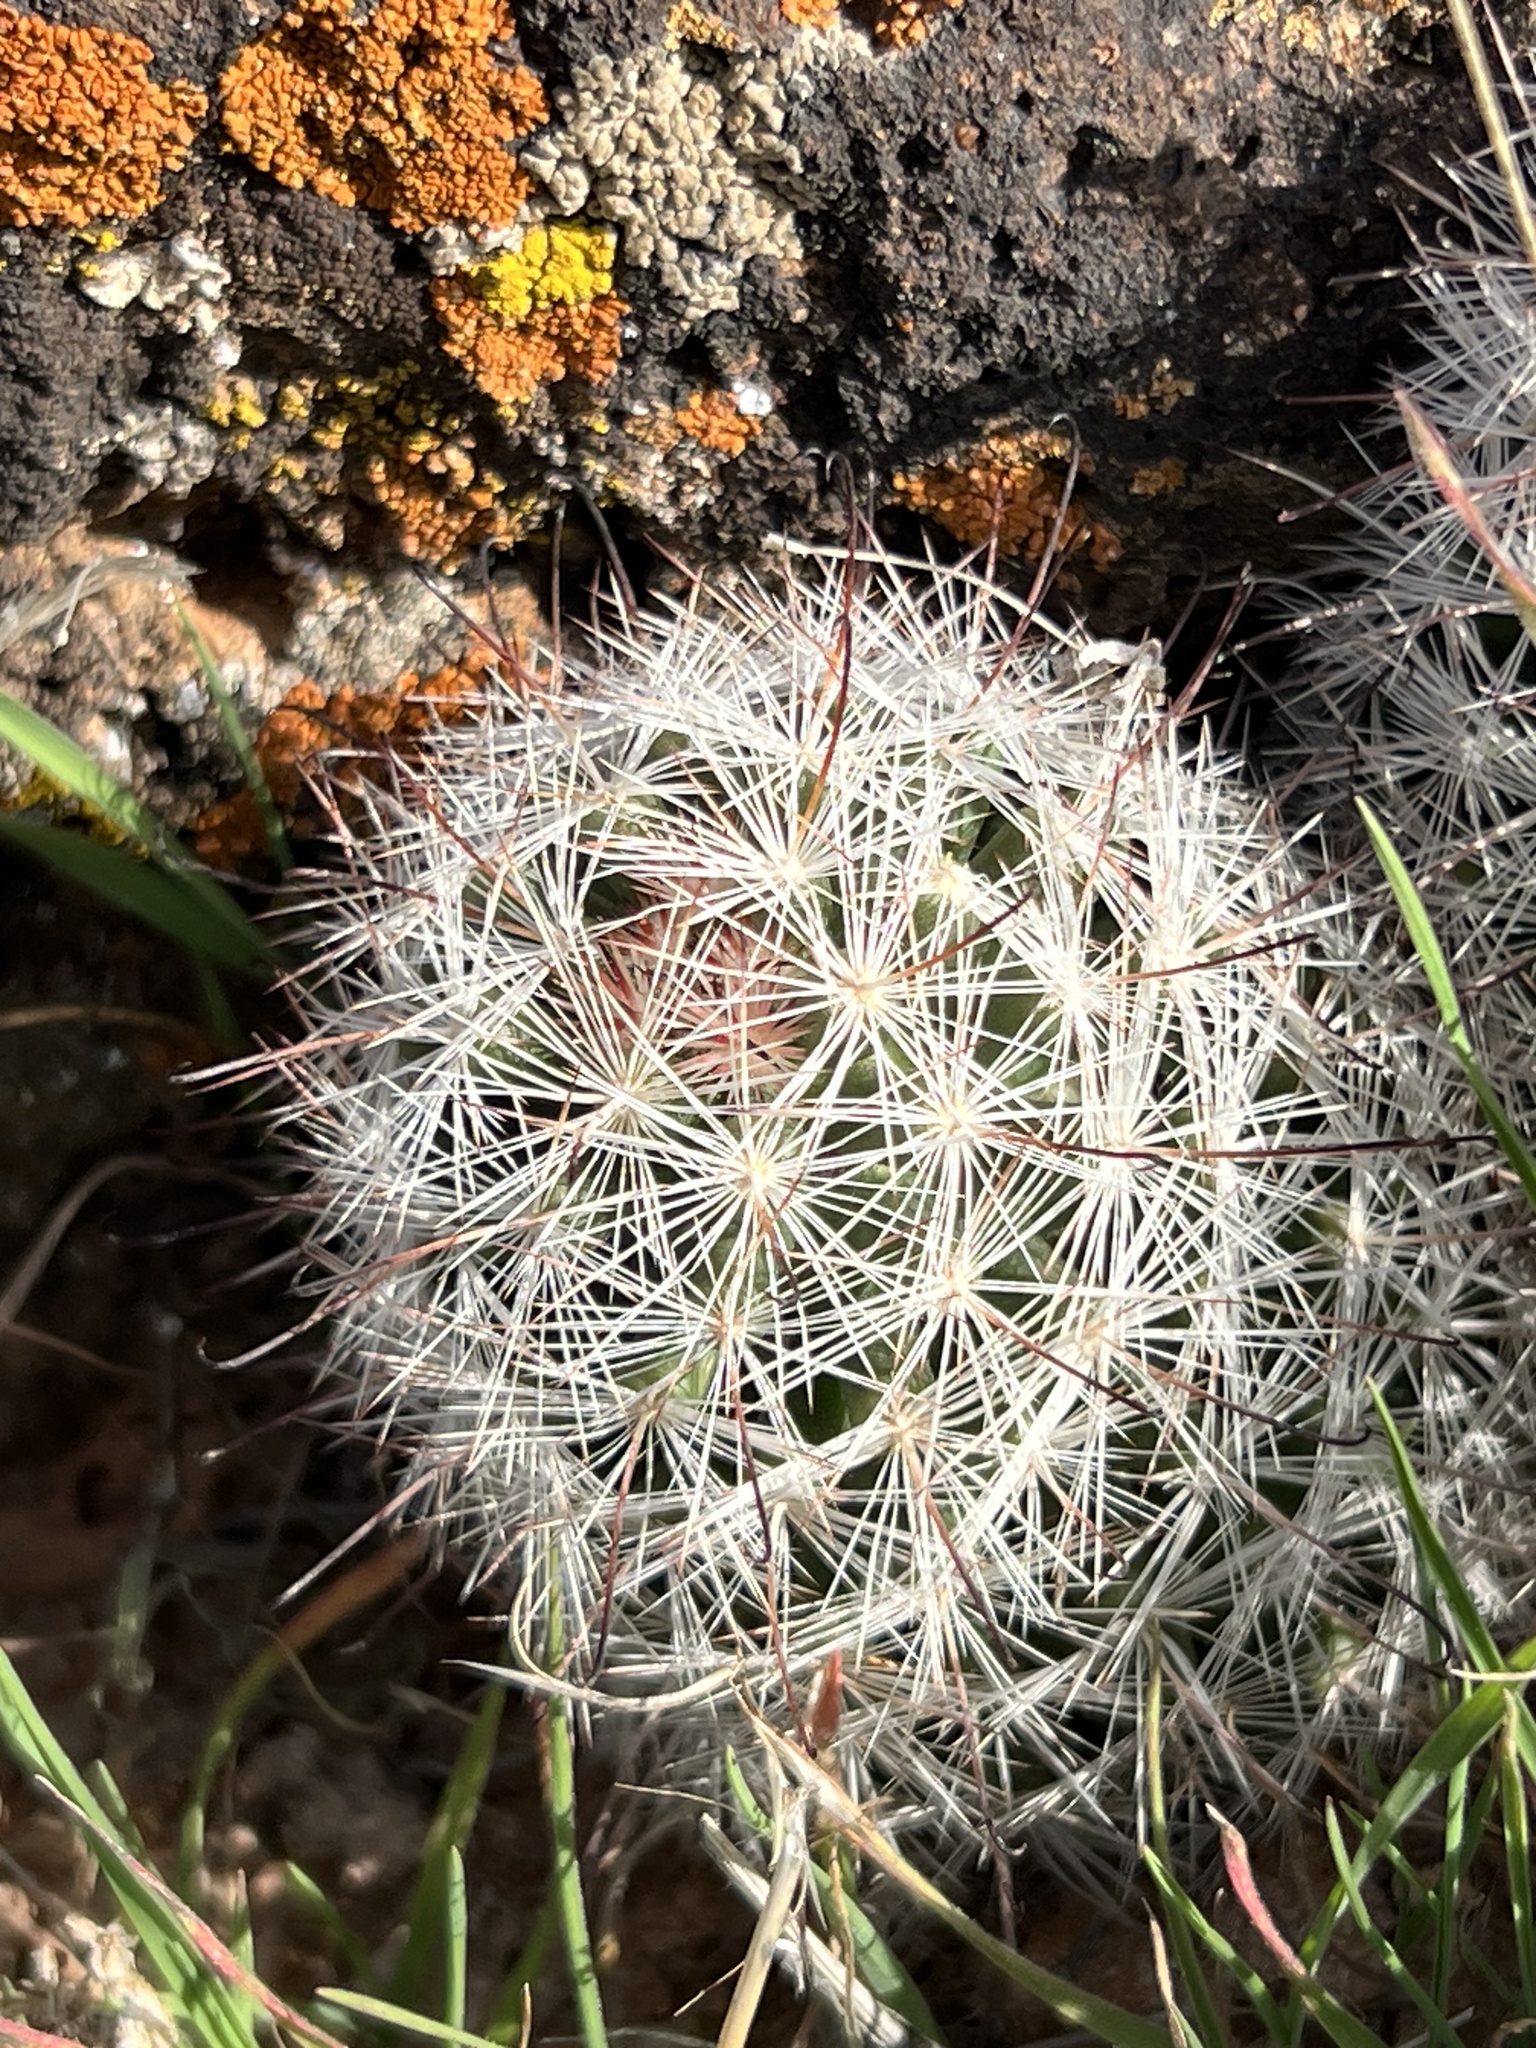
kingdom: Plantae
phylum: Tracheophyta
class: Magnoliopsida
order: Caryophyllales
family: Cactaceae
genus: Cochemiea
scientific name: Cochemiea tetrancistra
